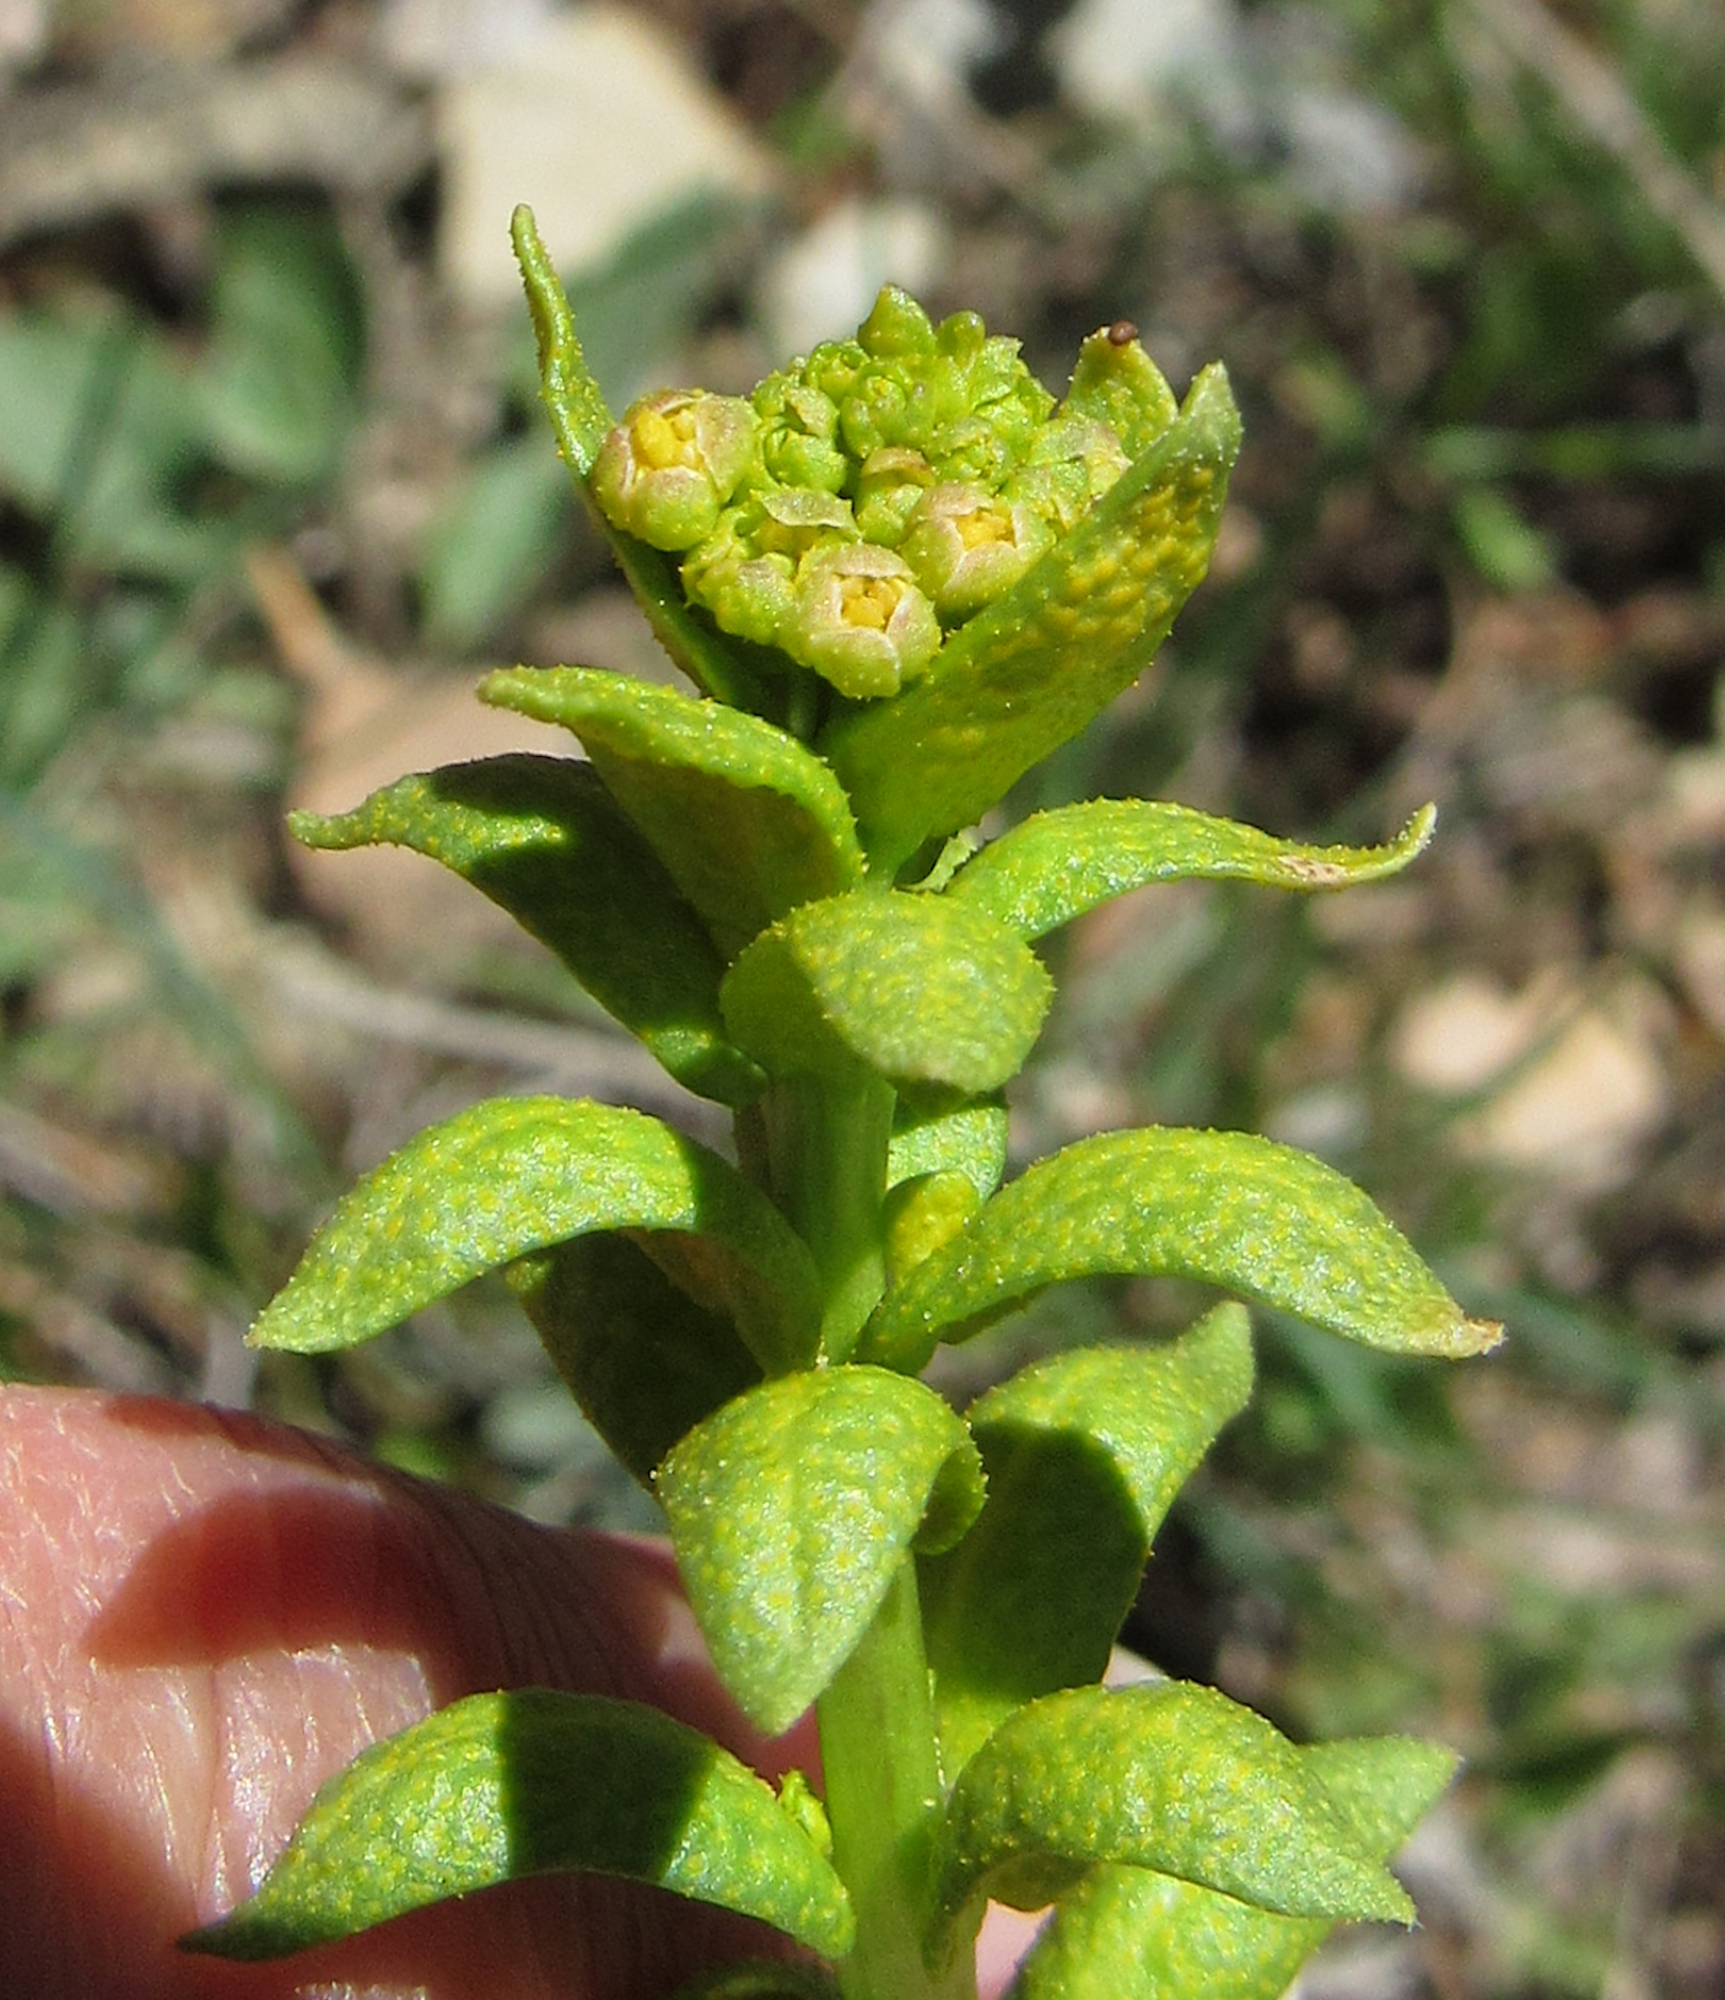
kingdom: Fungi
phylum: Basidiomycota
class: Pucciniomycetes
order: Pucciniales
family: Pucciniaceae
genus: Puccinia
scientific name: Puccinia monoica
